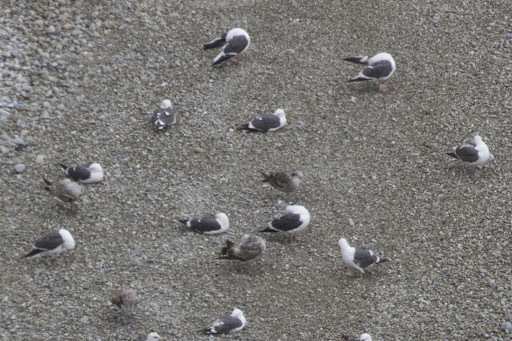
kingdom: Animalia
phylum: Chordata
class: Aves
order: Charadriiformes
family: Laridae
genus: Larus
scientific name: Larus occidentalis
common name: Western gull
